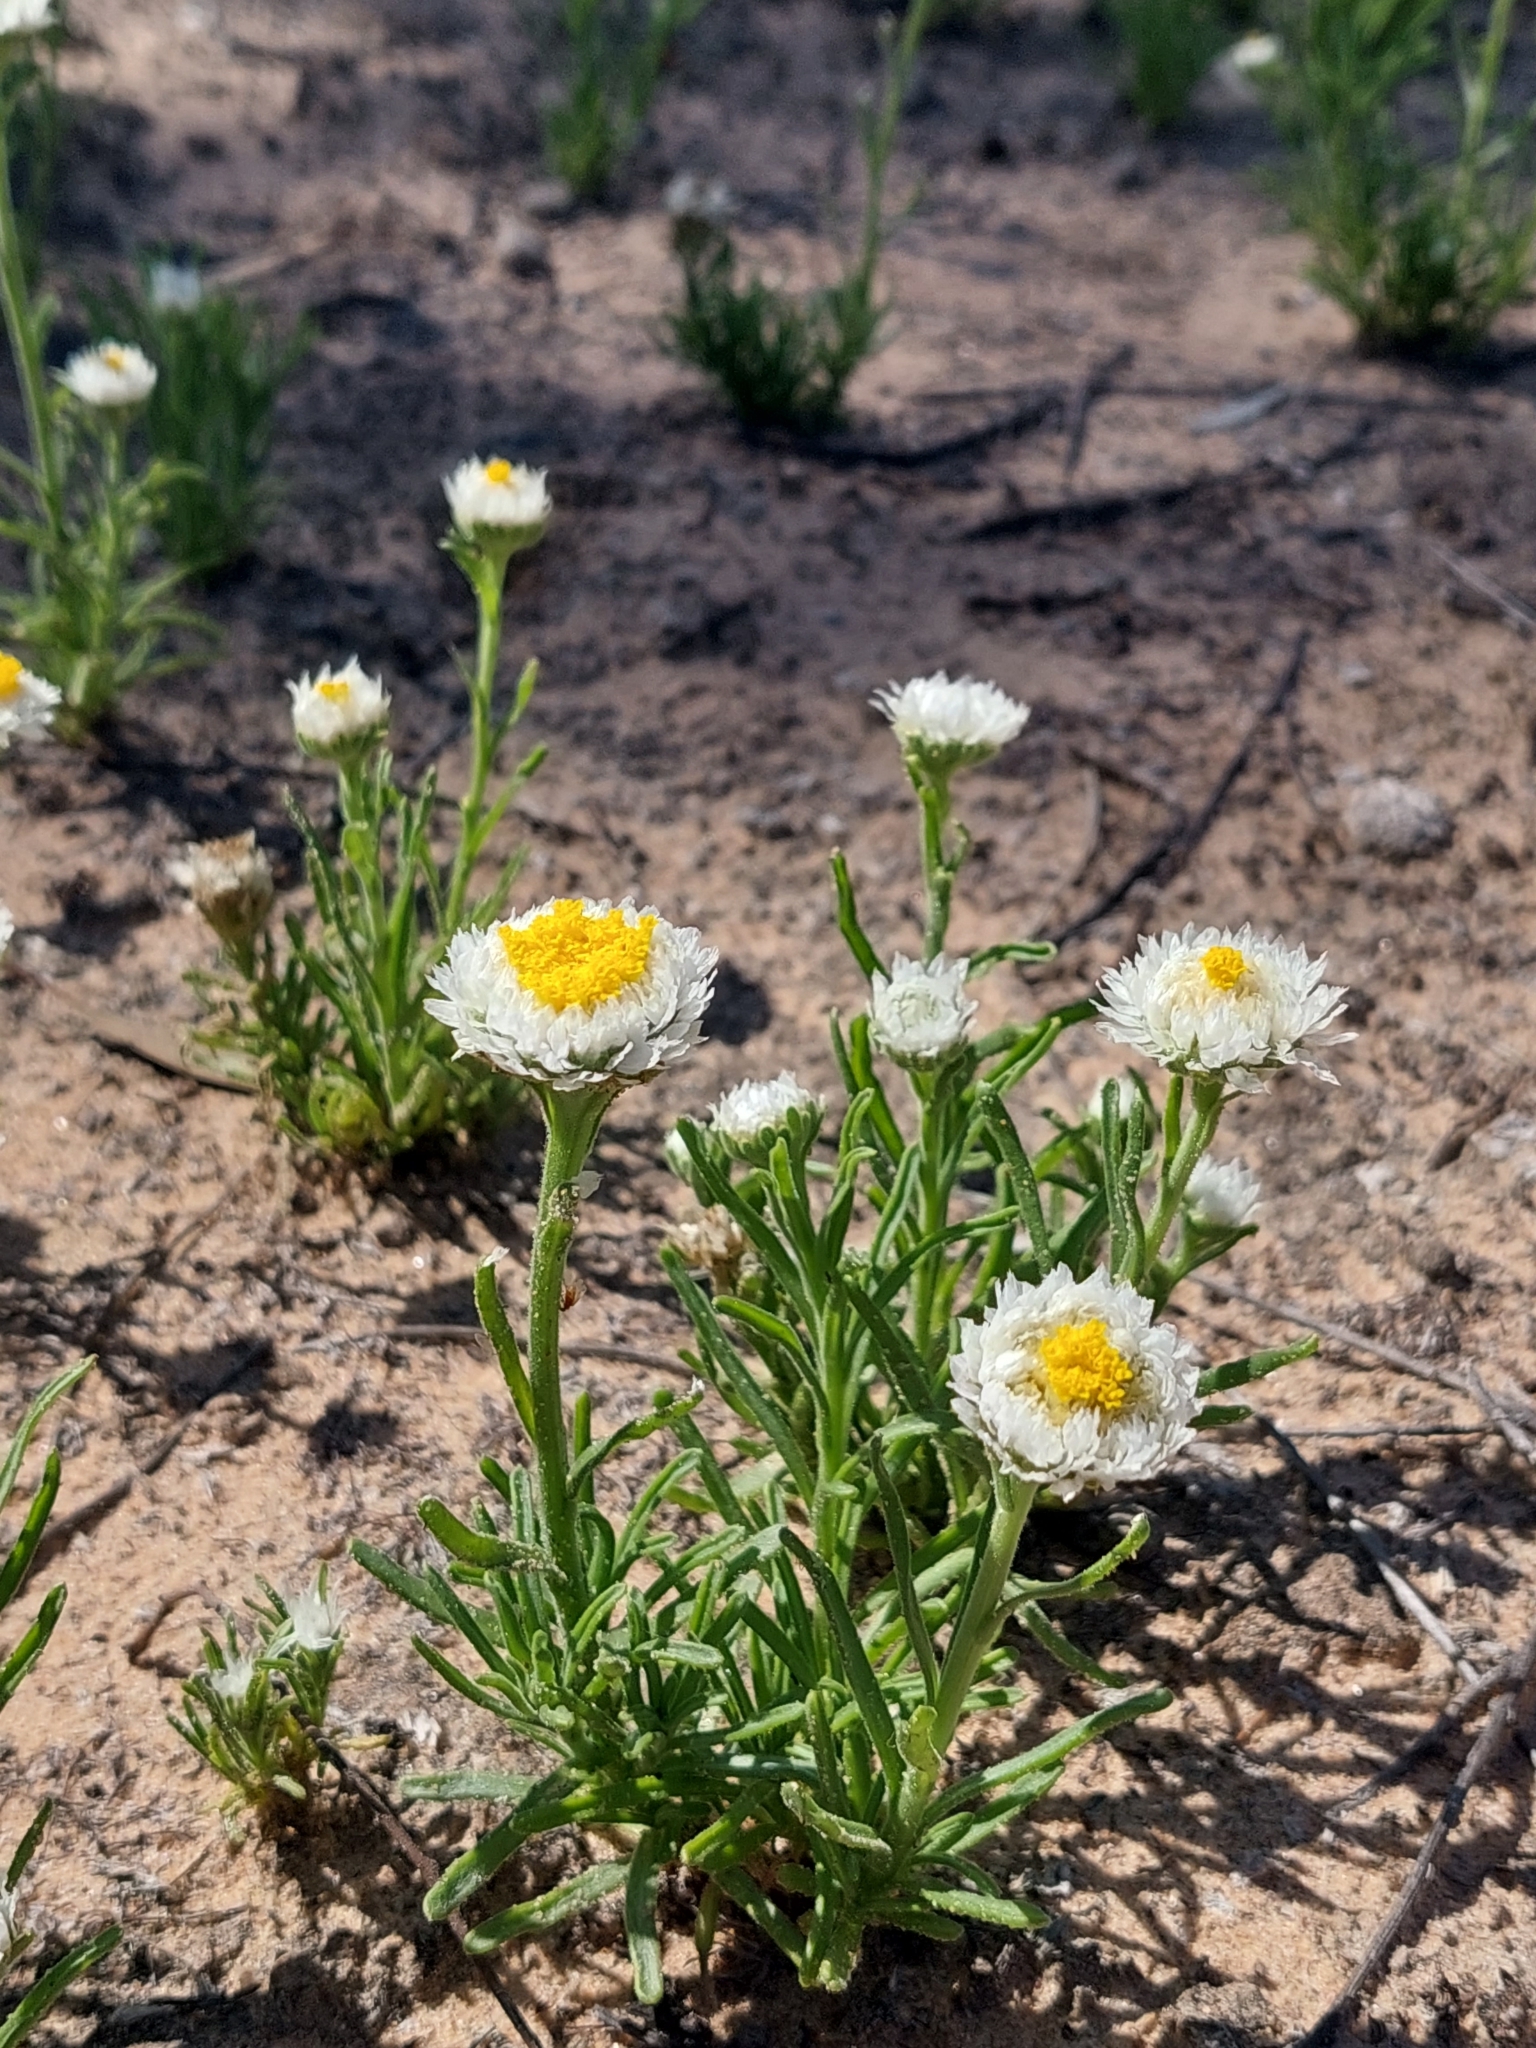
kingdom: Plantae
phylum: Tracheophyta
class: Magnoliopsida
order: Asterales
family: Asteraceae
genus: Polycalymma
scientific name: Polycalymma stuartii
